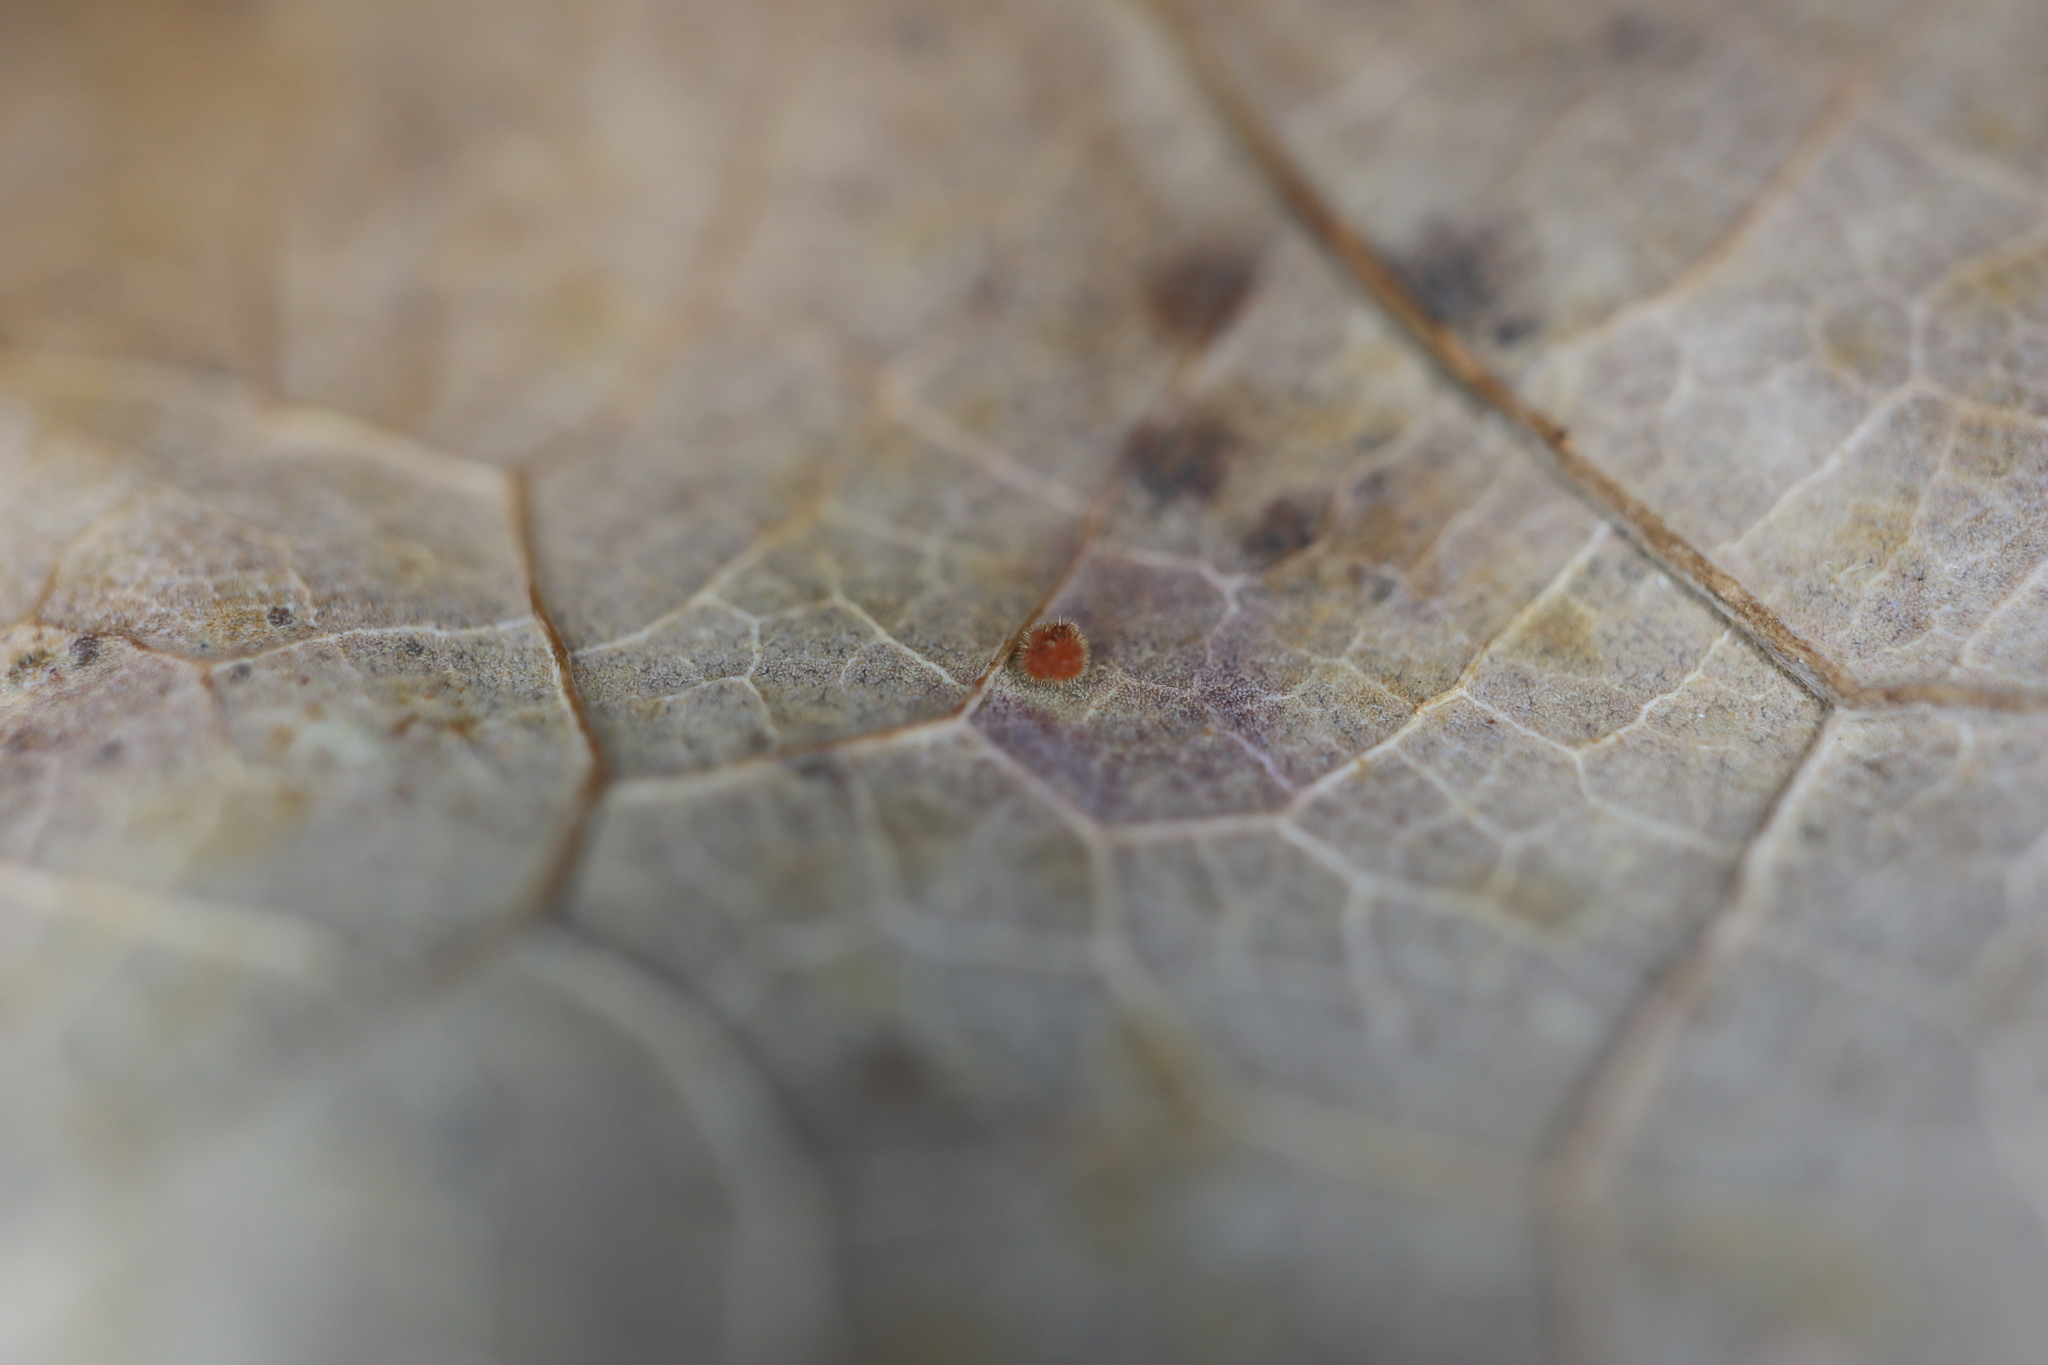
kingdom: Animalia
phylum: Arthropoda
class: Insecta
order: Hymenoptera
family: Cynipidae
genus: Neuroterus
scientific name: Neuroterus saltarius
